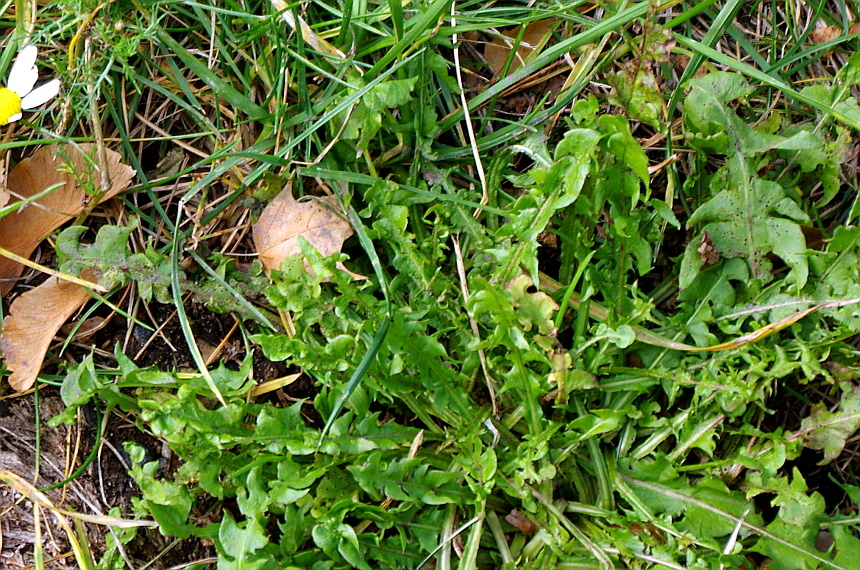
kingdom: Plantae
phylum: Tracheophyta
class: Magnoliopsida
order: Asterales
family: Asteraceae
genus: Taraxacum
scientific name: Taraxacum officinale
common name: Common dandelion
